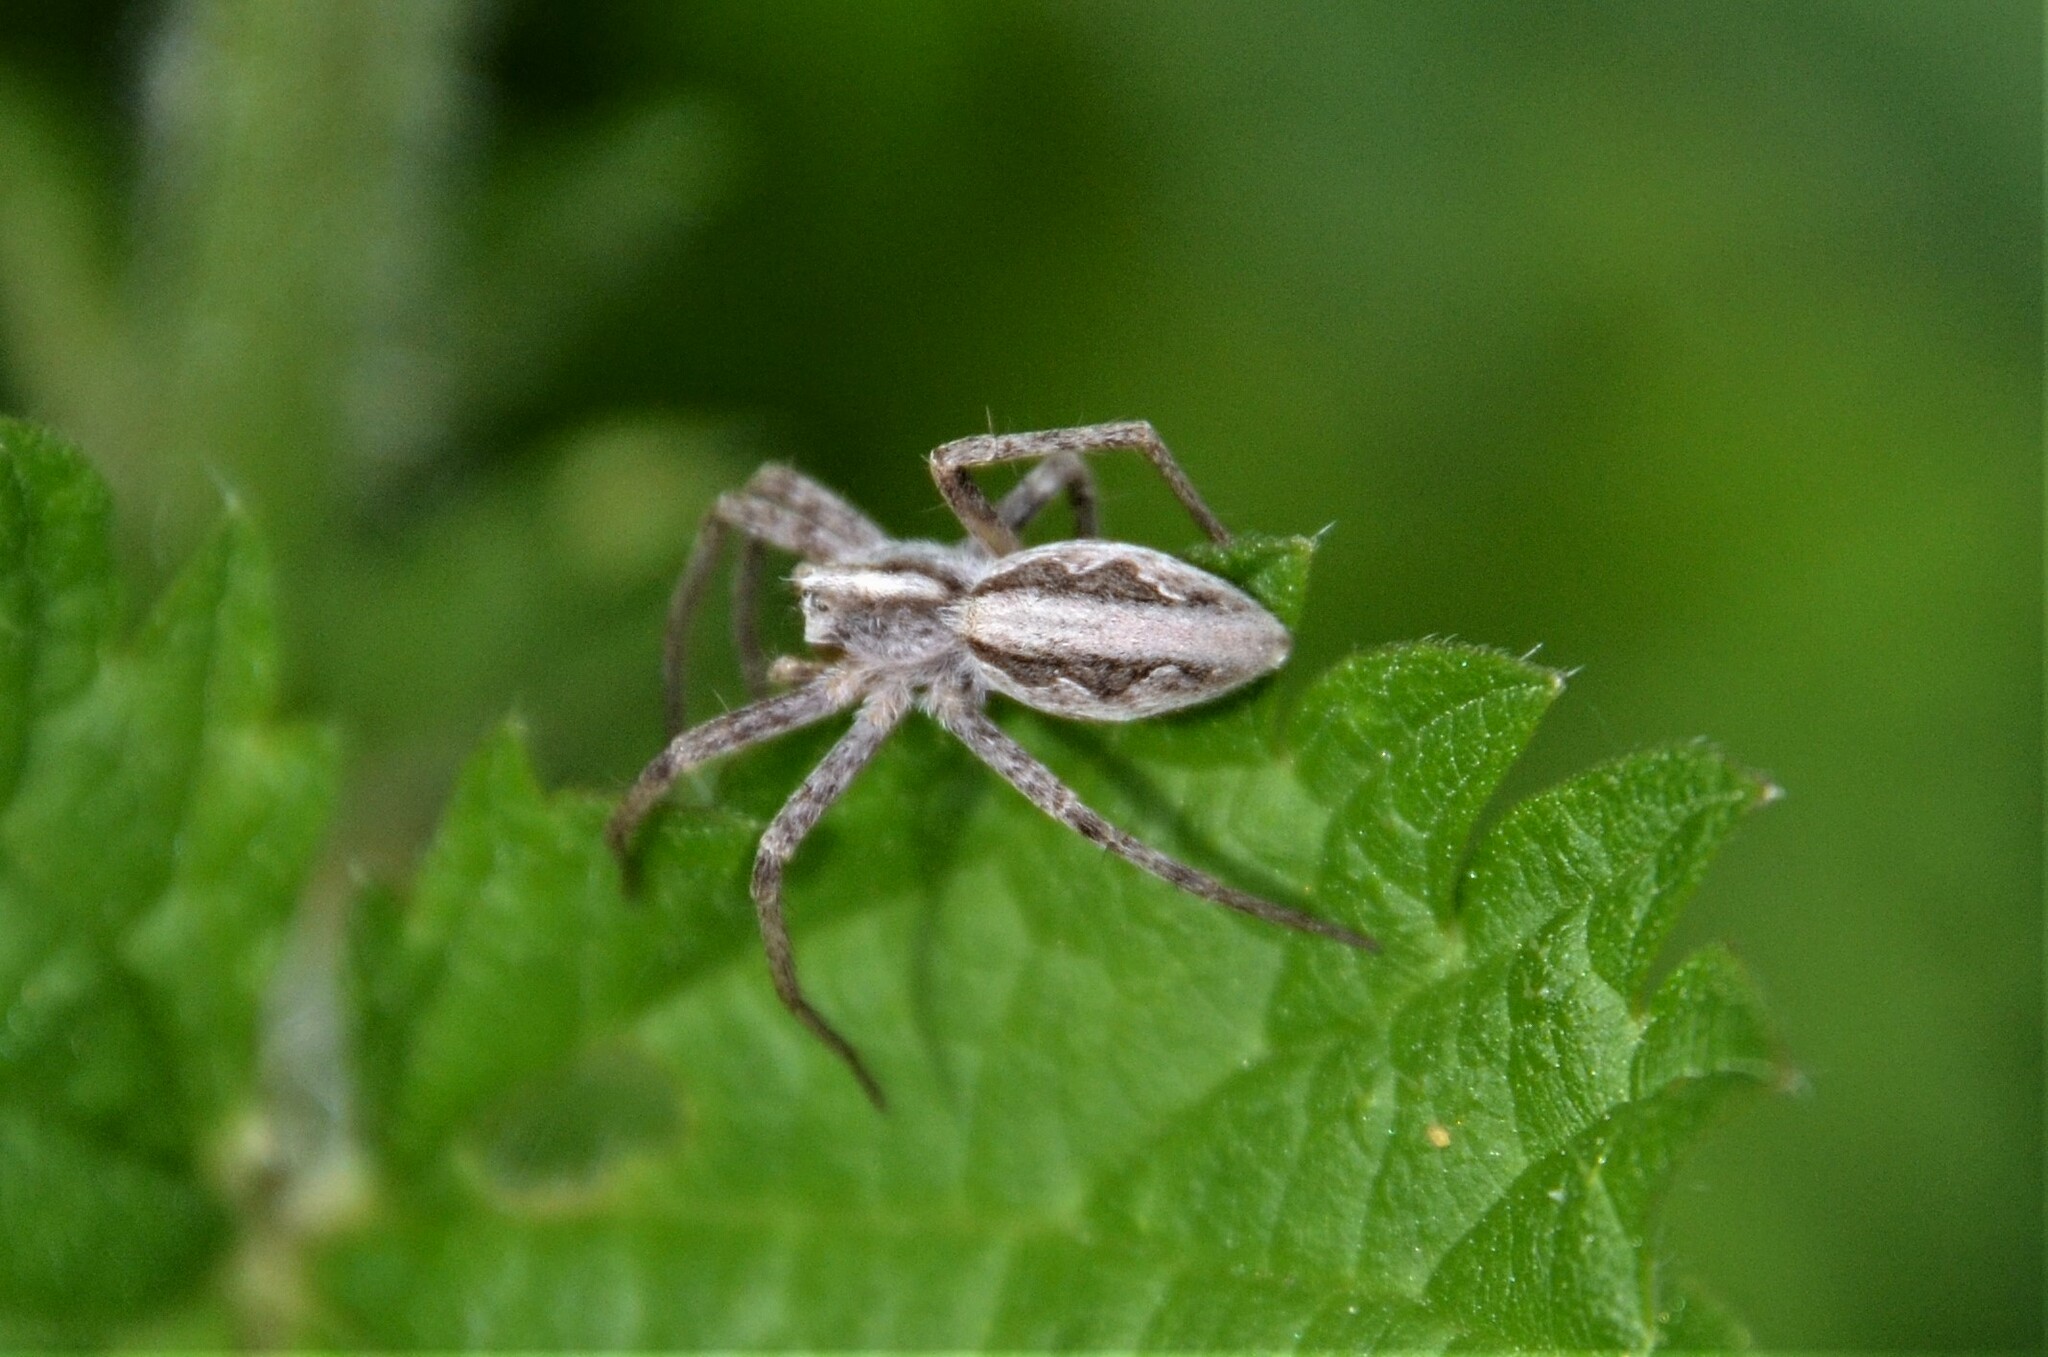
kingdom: Animalia
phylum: Arthropoda
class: Arachnida
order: Araneae
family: Pisauridae
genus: Pisaura
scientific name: Pisaura mirabilis
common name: Tent spider
